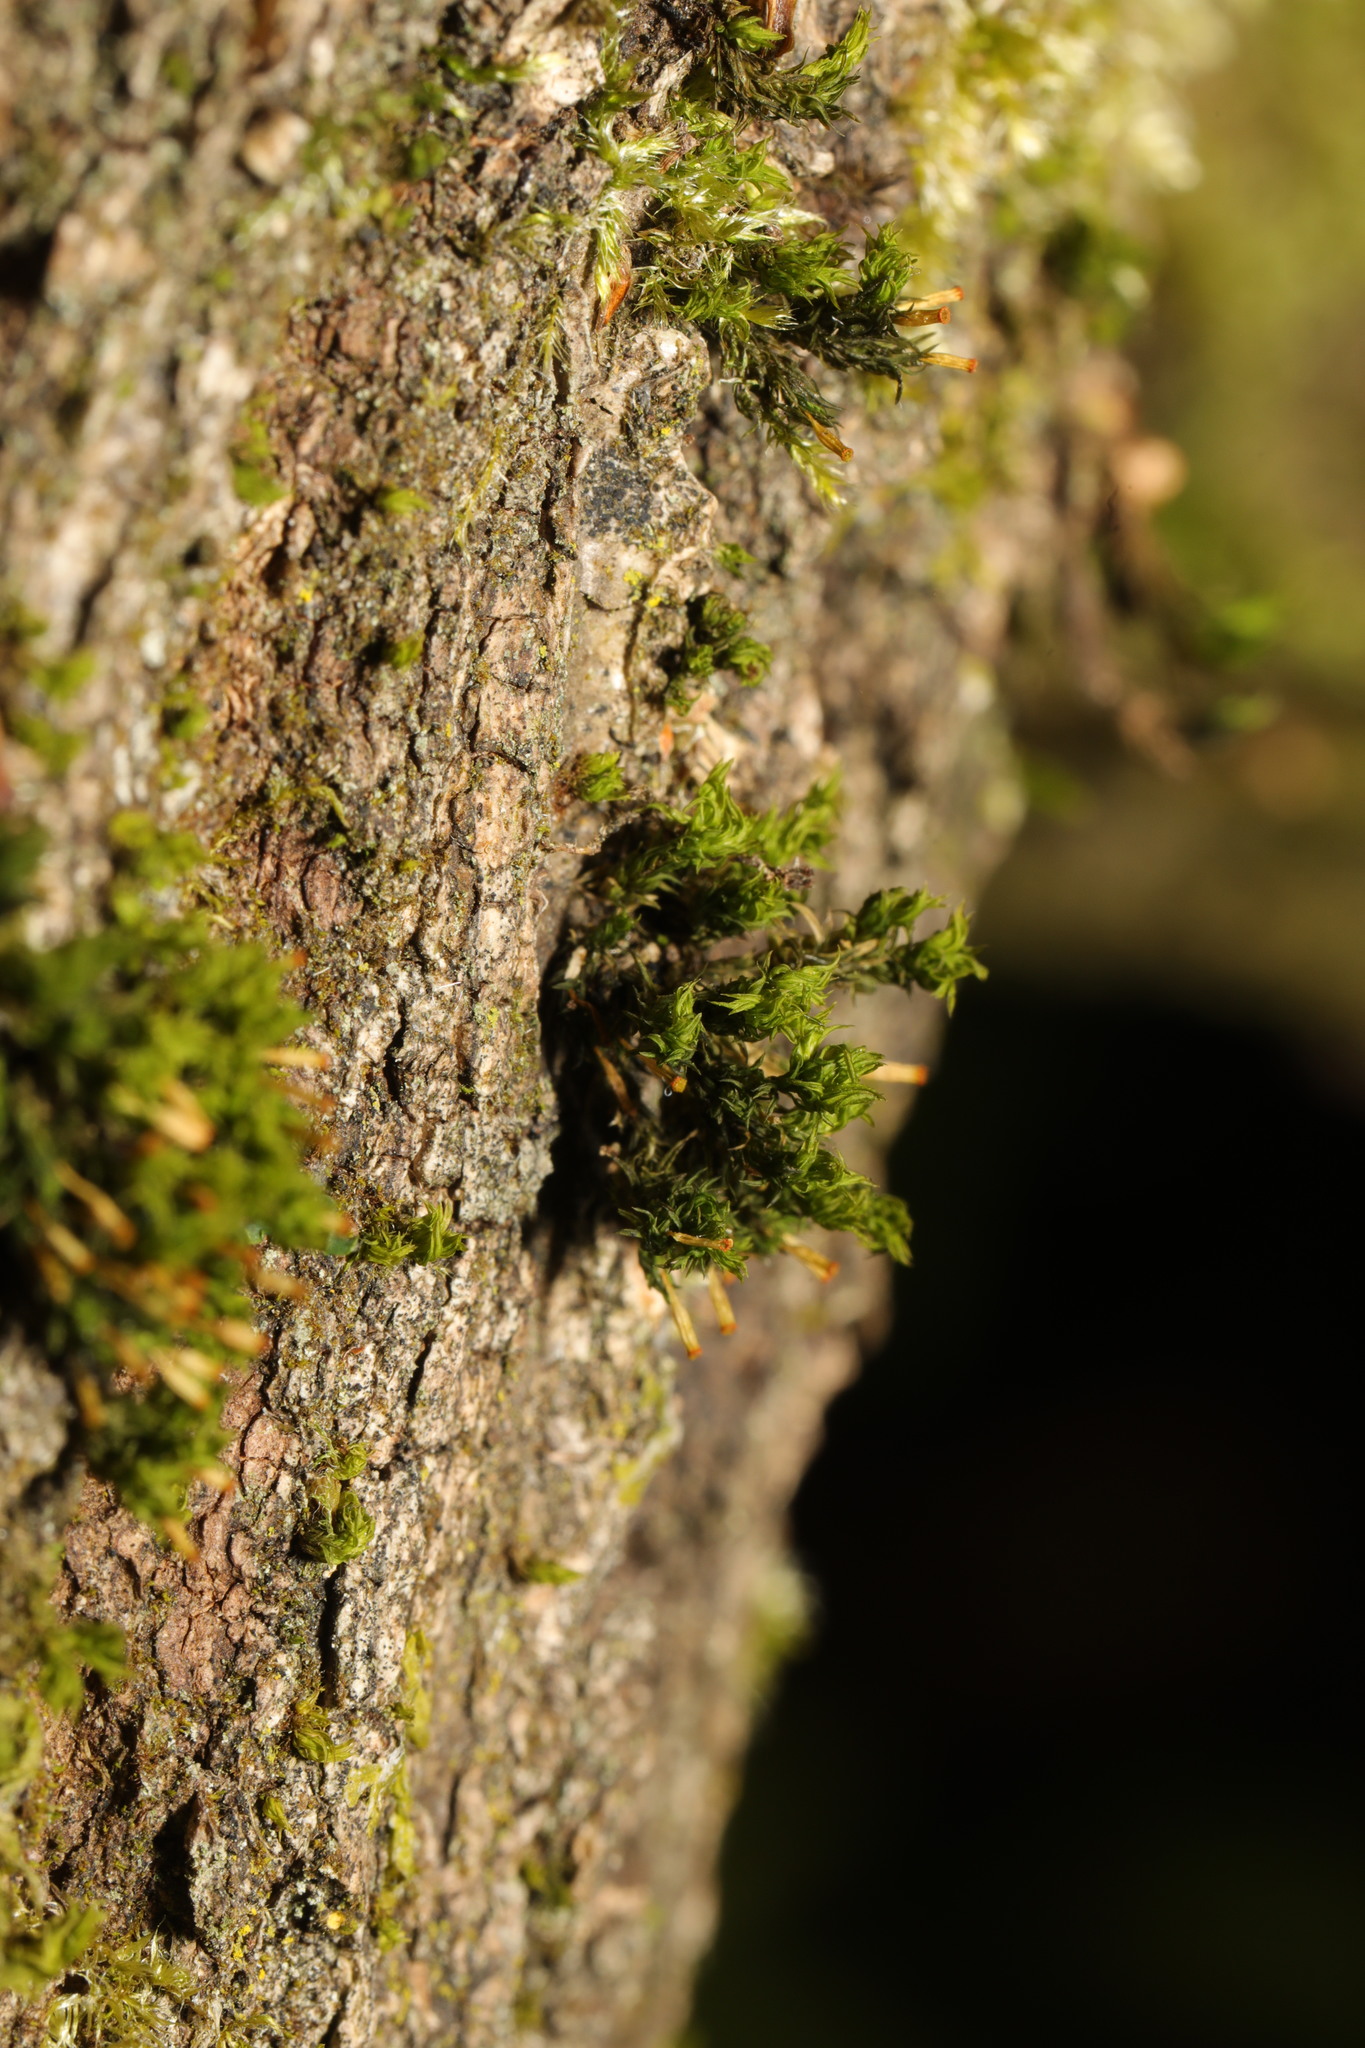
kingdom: Plantae
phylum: Bryophyta
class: Bryopsida
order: Orthotrichales
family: Orthotrichaceae
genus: Orthotrichum
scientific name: Orthotrichum pulchellum
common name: Elegant bristle-moss
